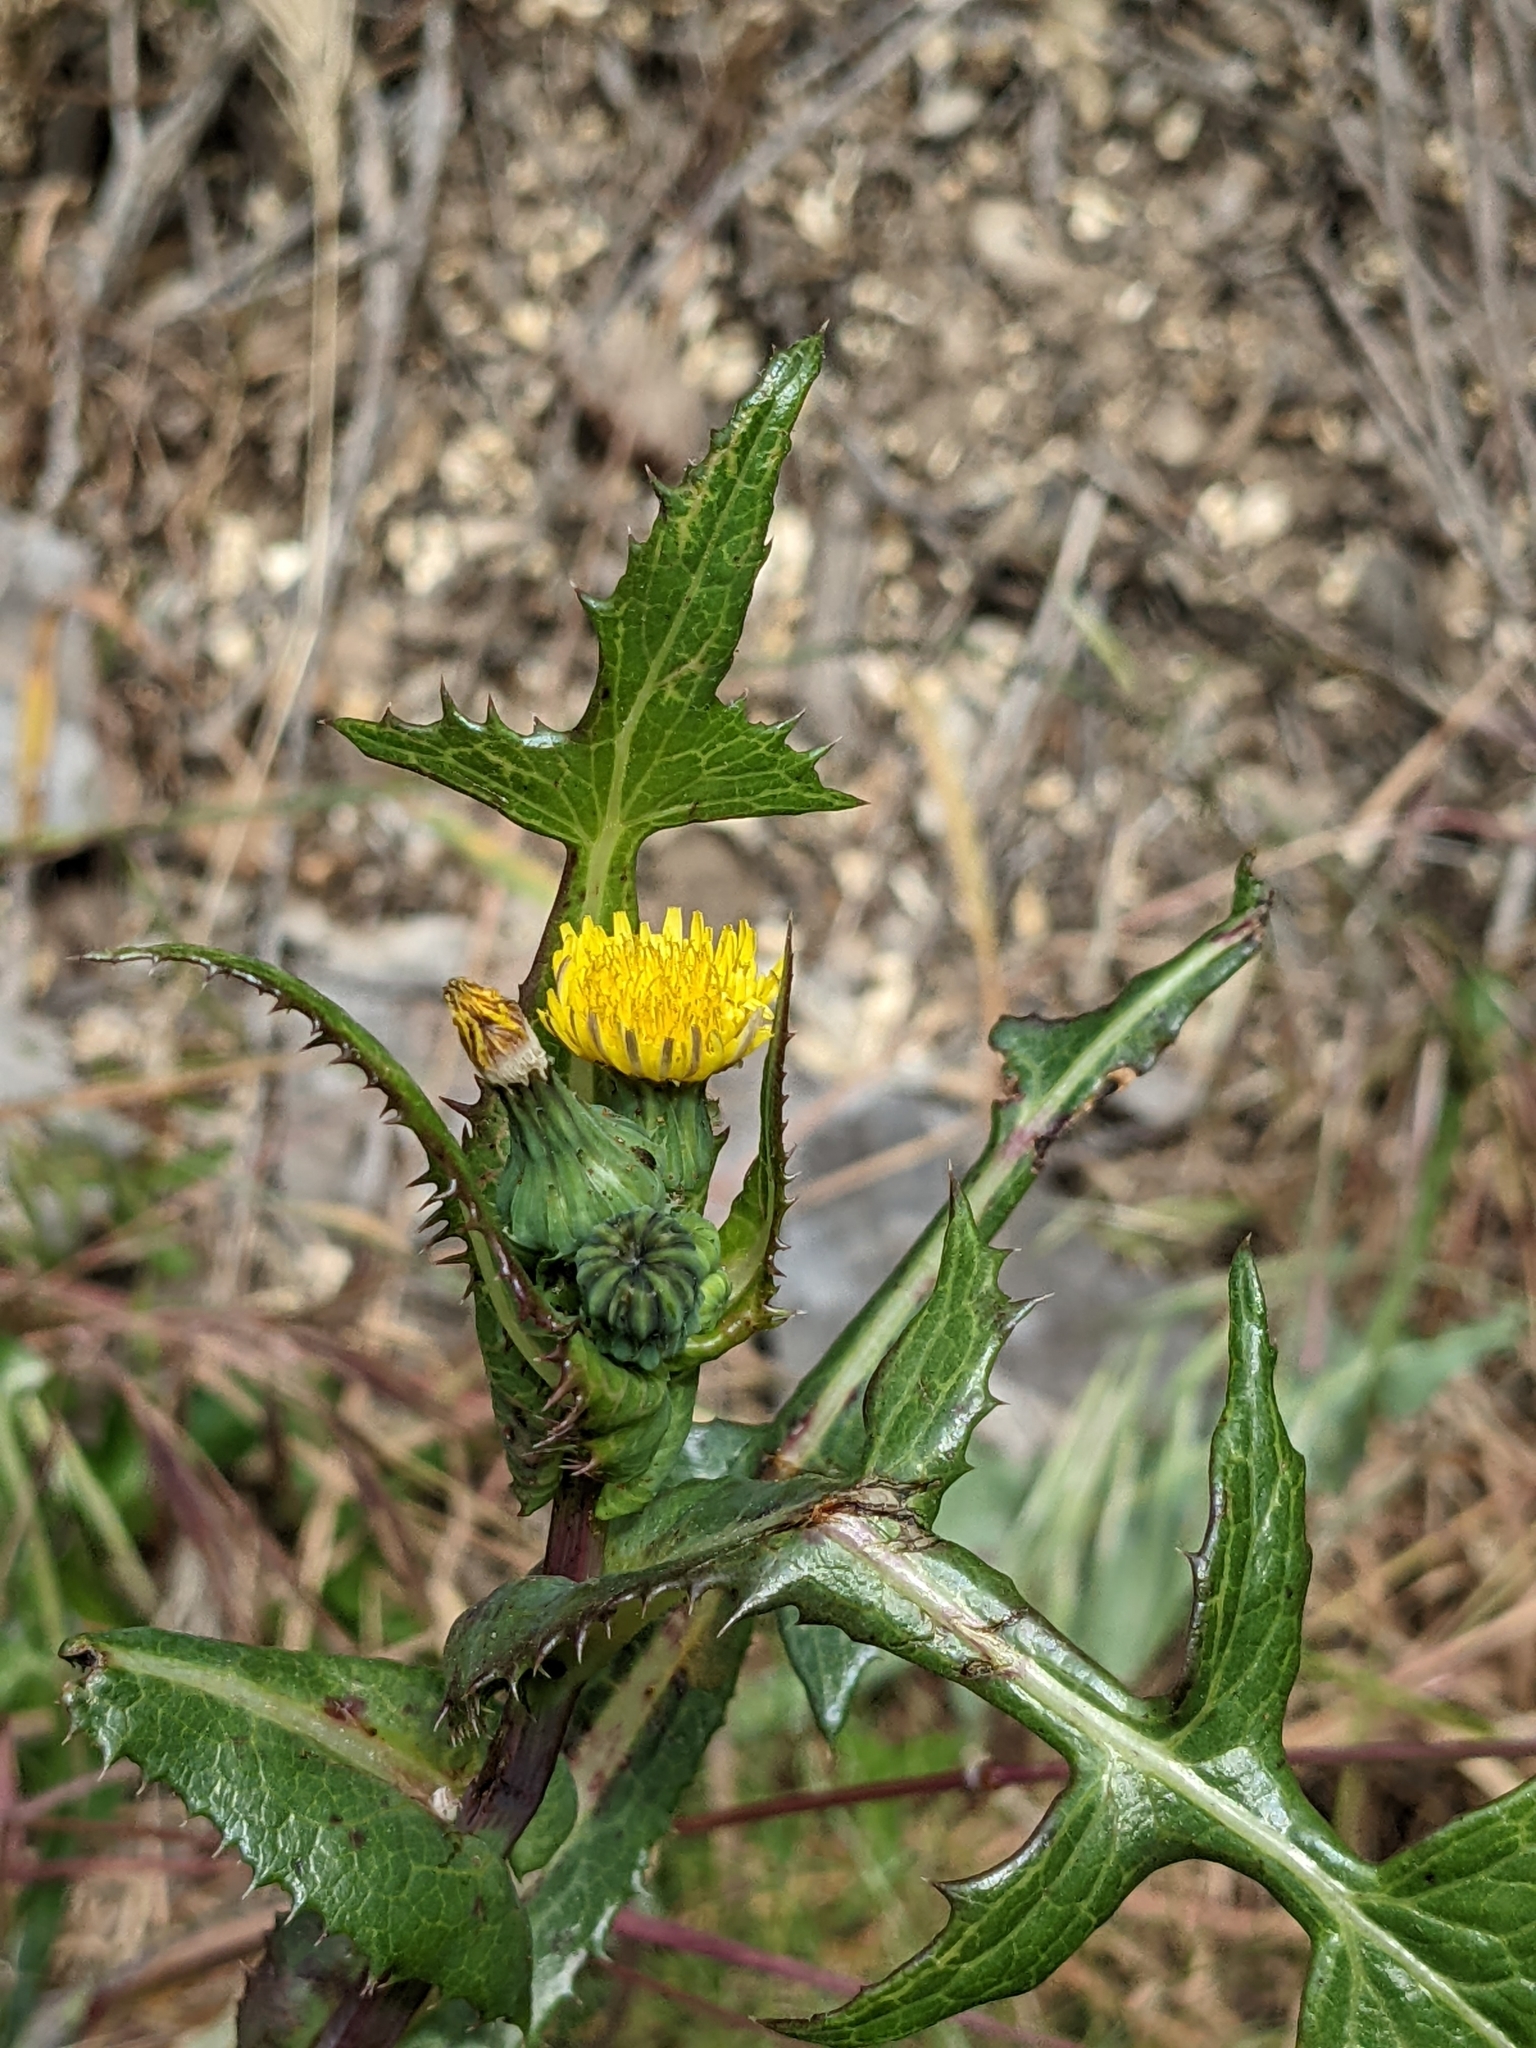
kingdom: Plantae
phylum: Tracheophyta
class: Magnoliopsida
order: Asterales
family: Asteraceae
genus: Sonchus
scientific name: Sonchus oleraceus
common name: Common sowthistle
